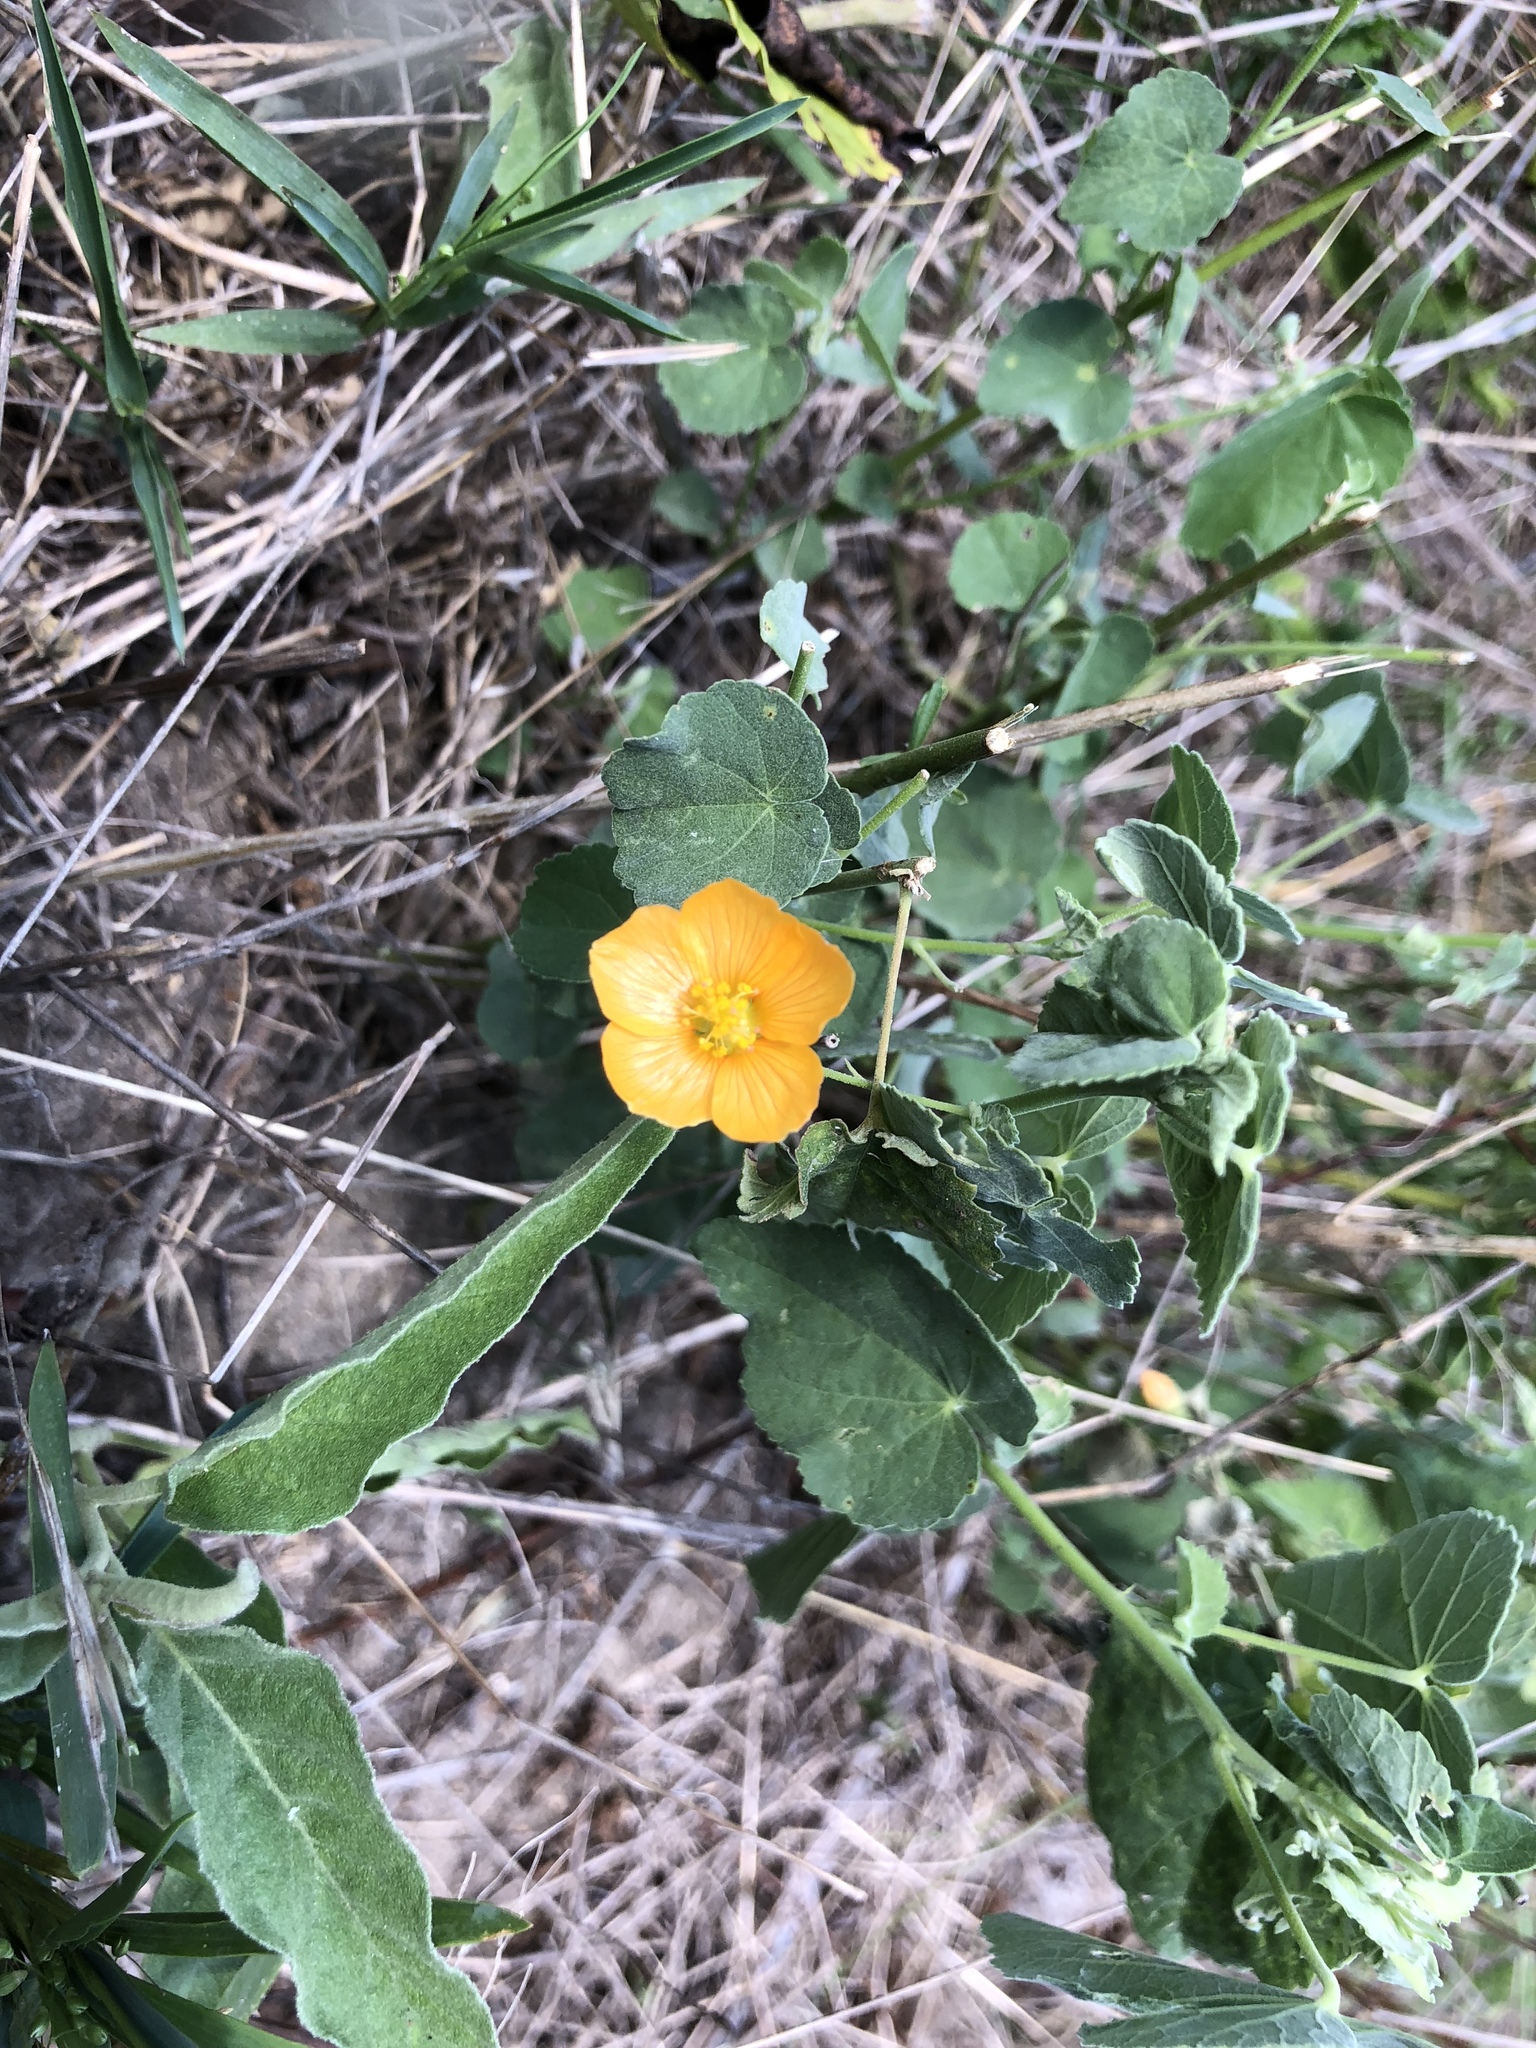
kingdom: Plantae
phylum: Tracheophyta
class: Magnoliopsida
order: Malvales
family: Malvaceae
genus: Abutilon
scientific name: Abutilon fruticosum
